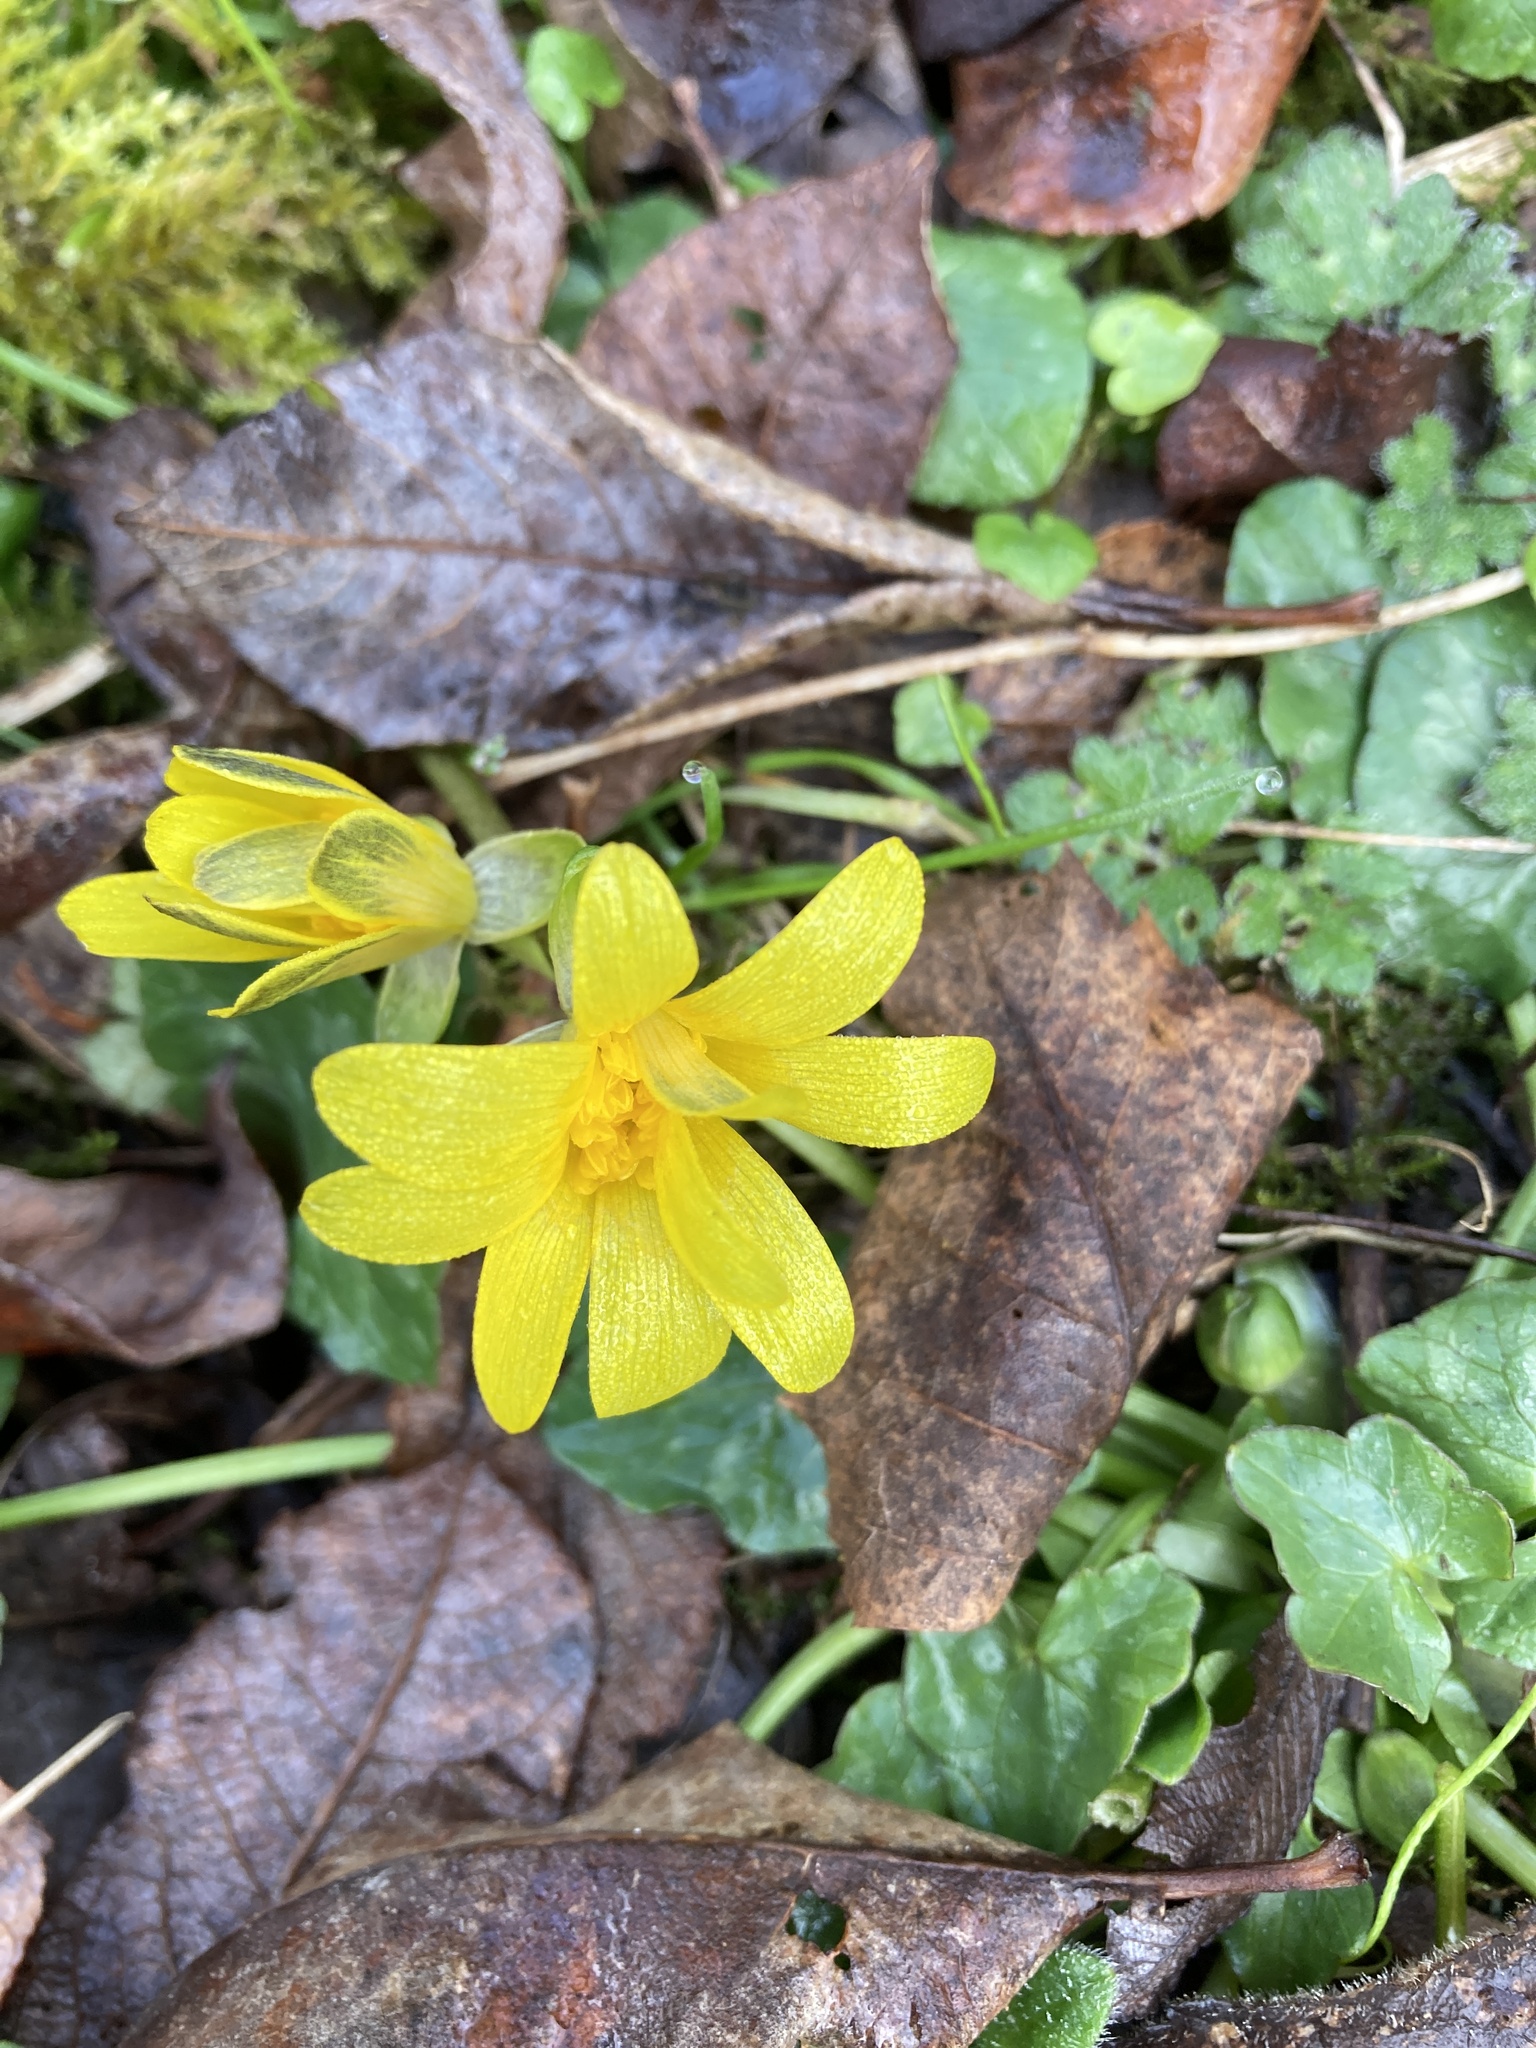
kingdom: Plantae
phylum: Tracheophyta
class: Magnoliopsida
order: Ranunculales
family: Ranunculaceae
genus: Ficaria
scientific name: Ficaria verna
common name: Lesser celandine
